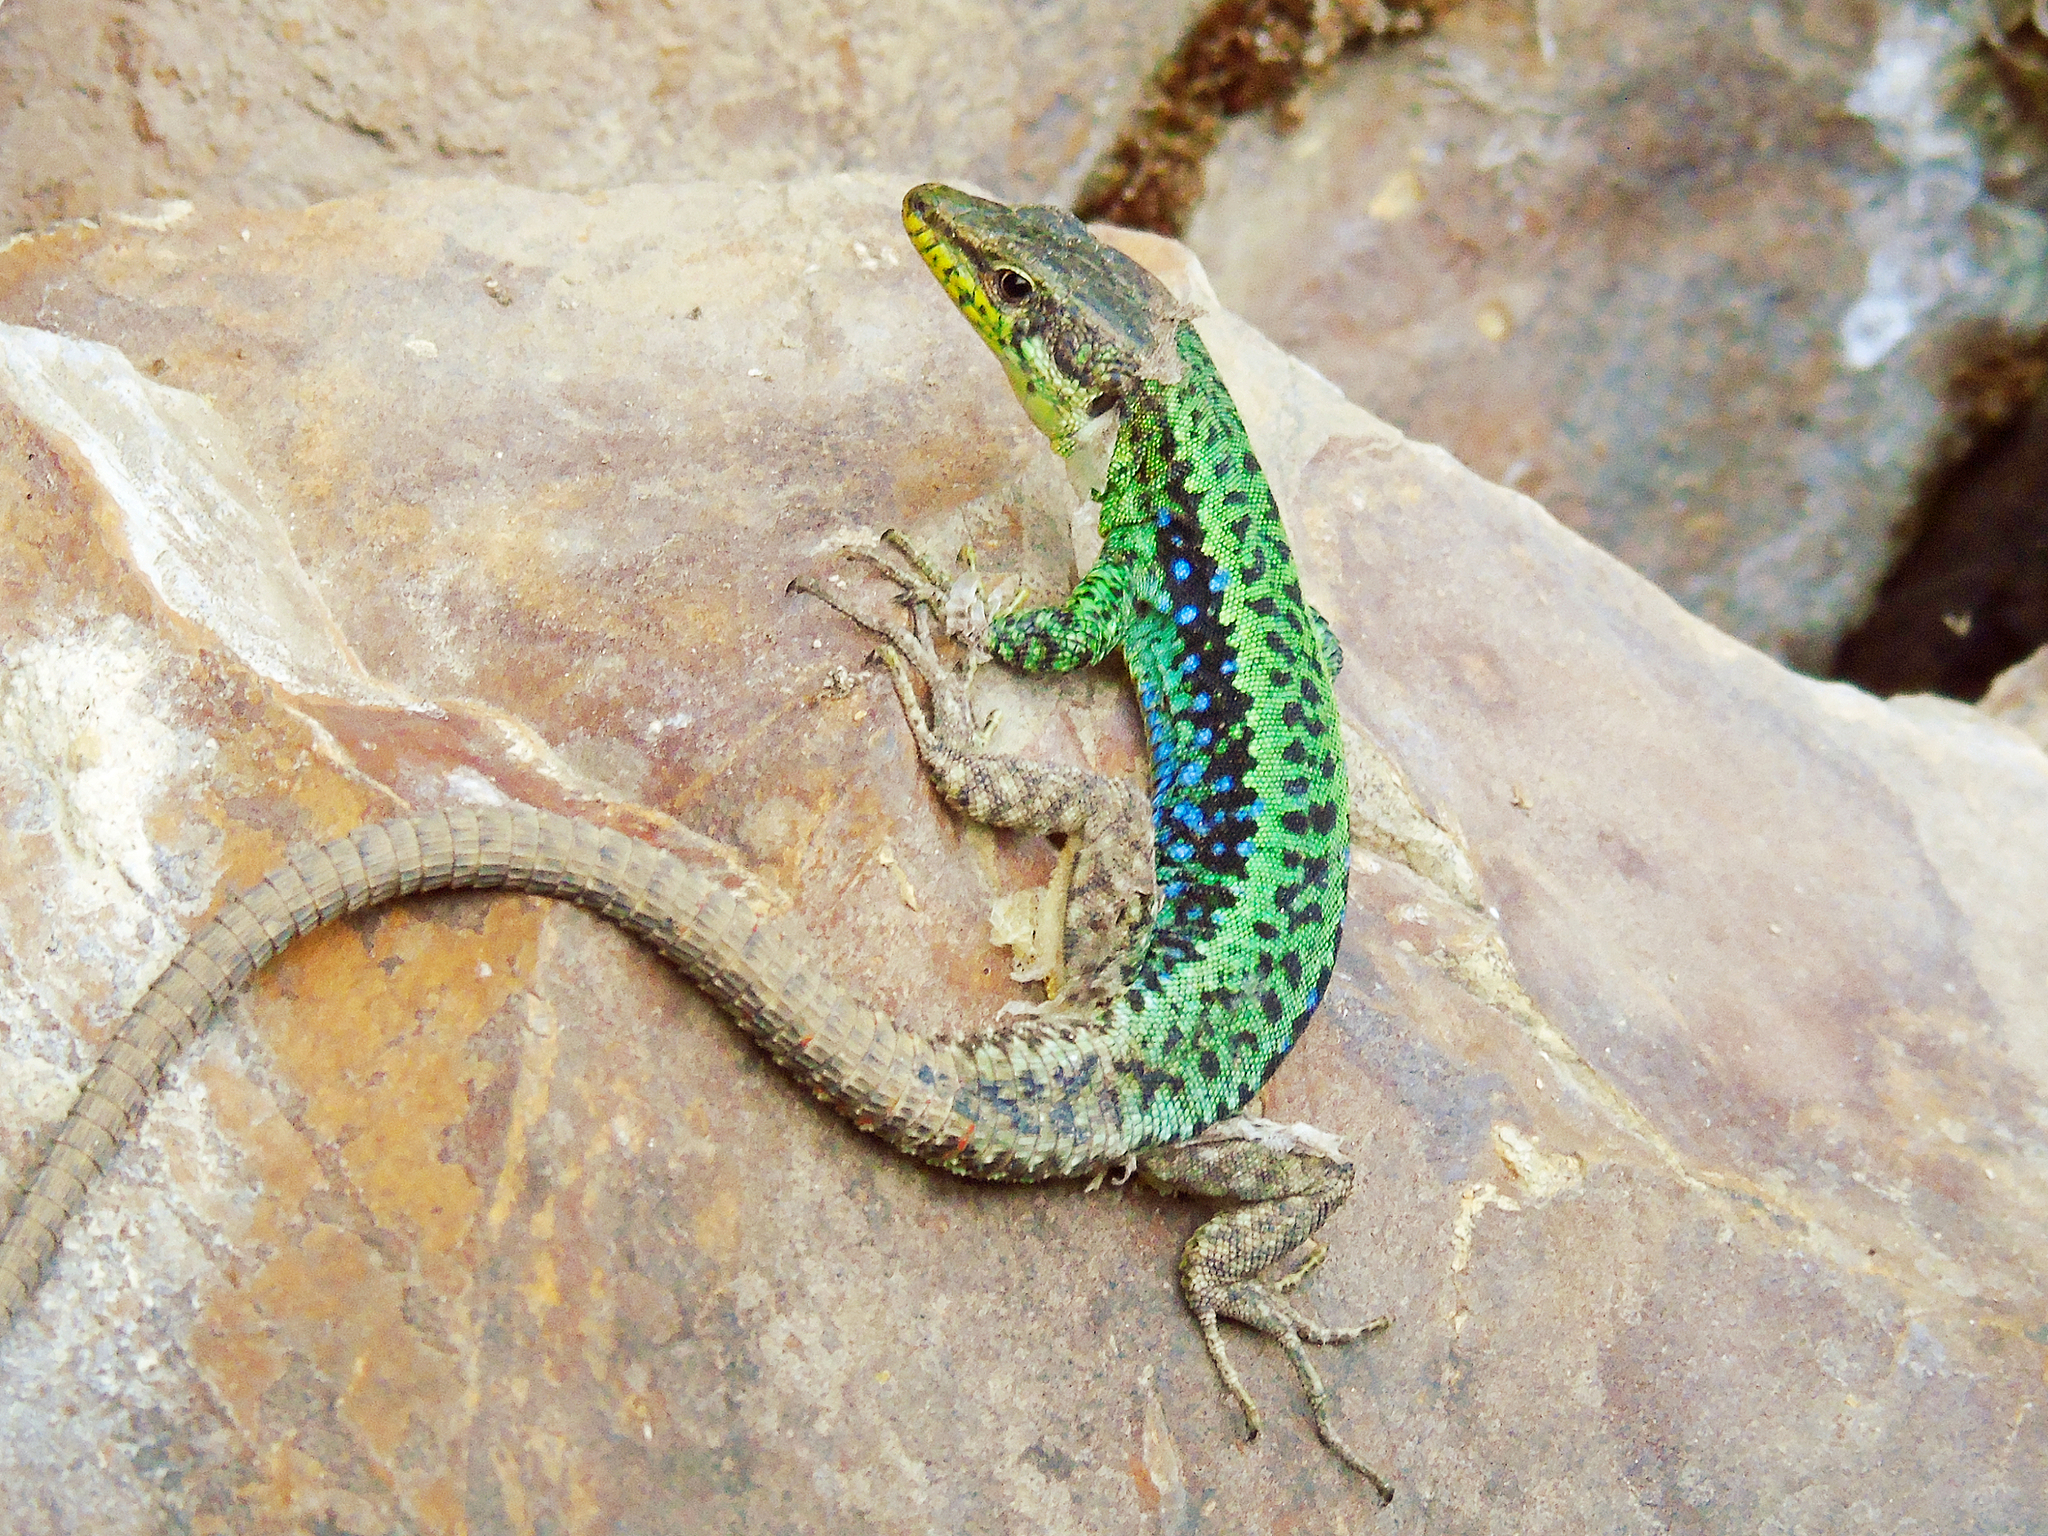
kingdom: Animalia
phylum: Chordata
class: Squamata
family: Lacertidae
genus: Darevskia
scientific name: Darevskia rudis
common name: Spiny-tailed lizard
